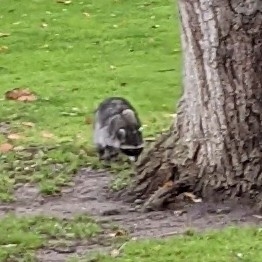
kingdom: Animalia
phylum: Chordata
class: Mammalia
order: Carnivora
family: Procyonidae
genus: Procyon
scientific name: Procyon lotor
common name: Raccoon
